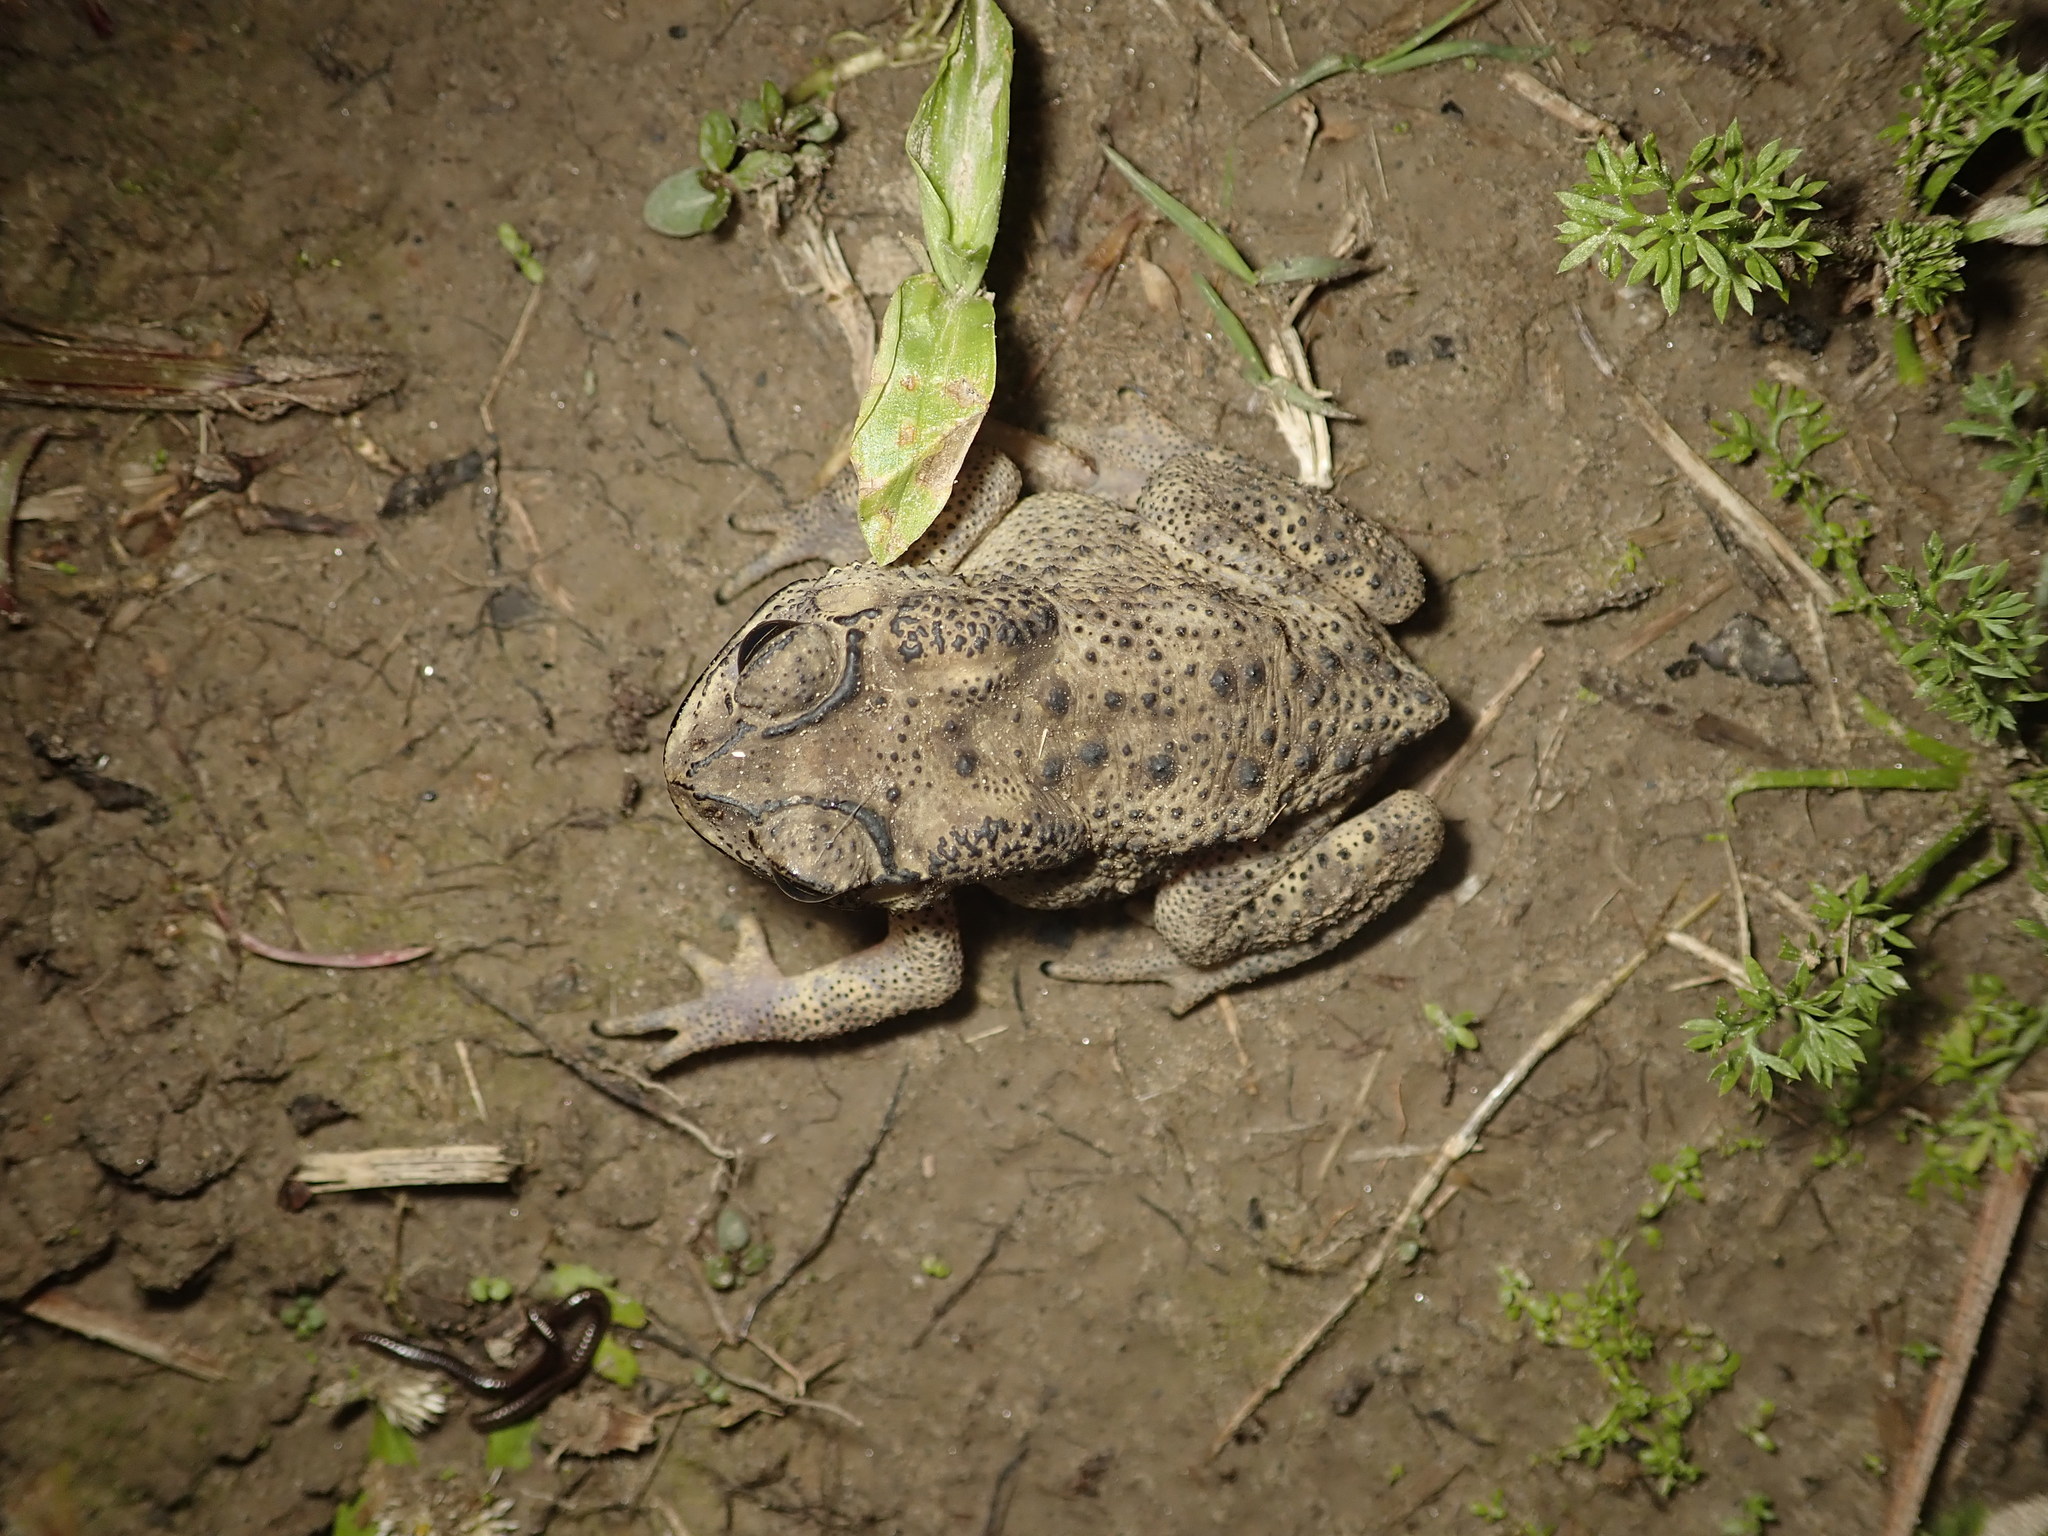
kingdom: Animalia
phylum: Chordata
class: Amphibia
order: Anura
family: Bufonidae
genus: Duttaphrynus
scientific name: Duttaphrynus melanostictus
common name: Common sunda toad
